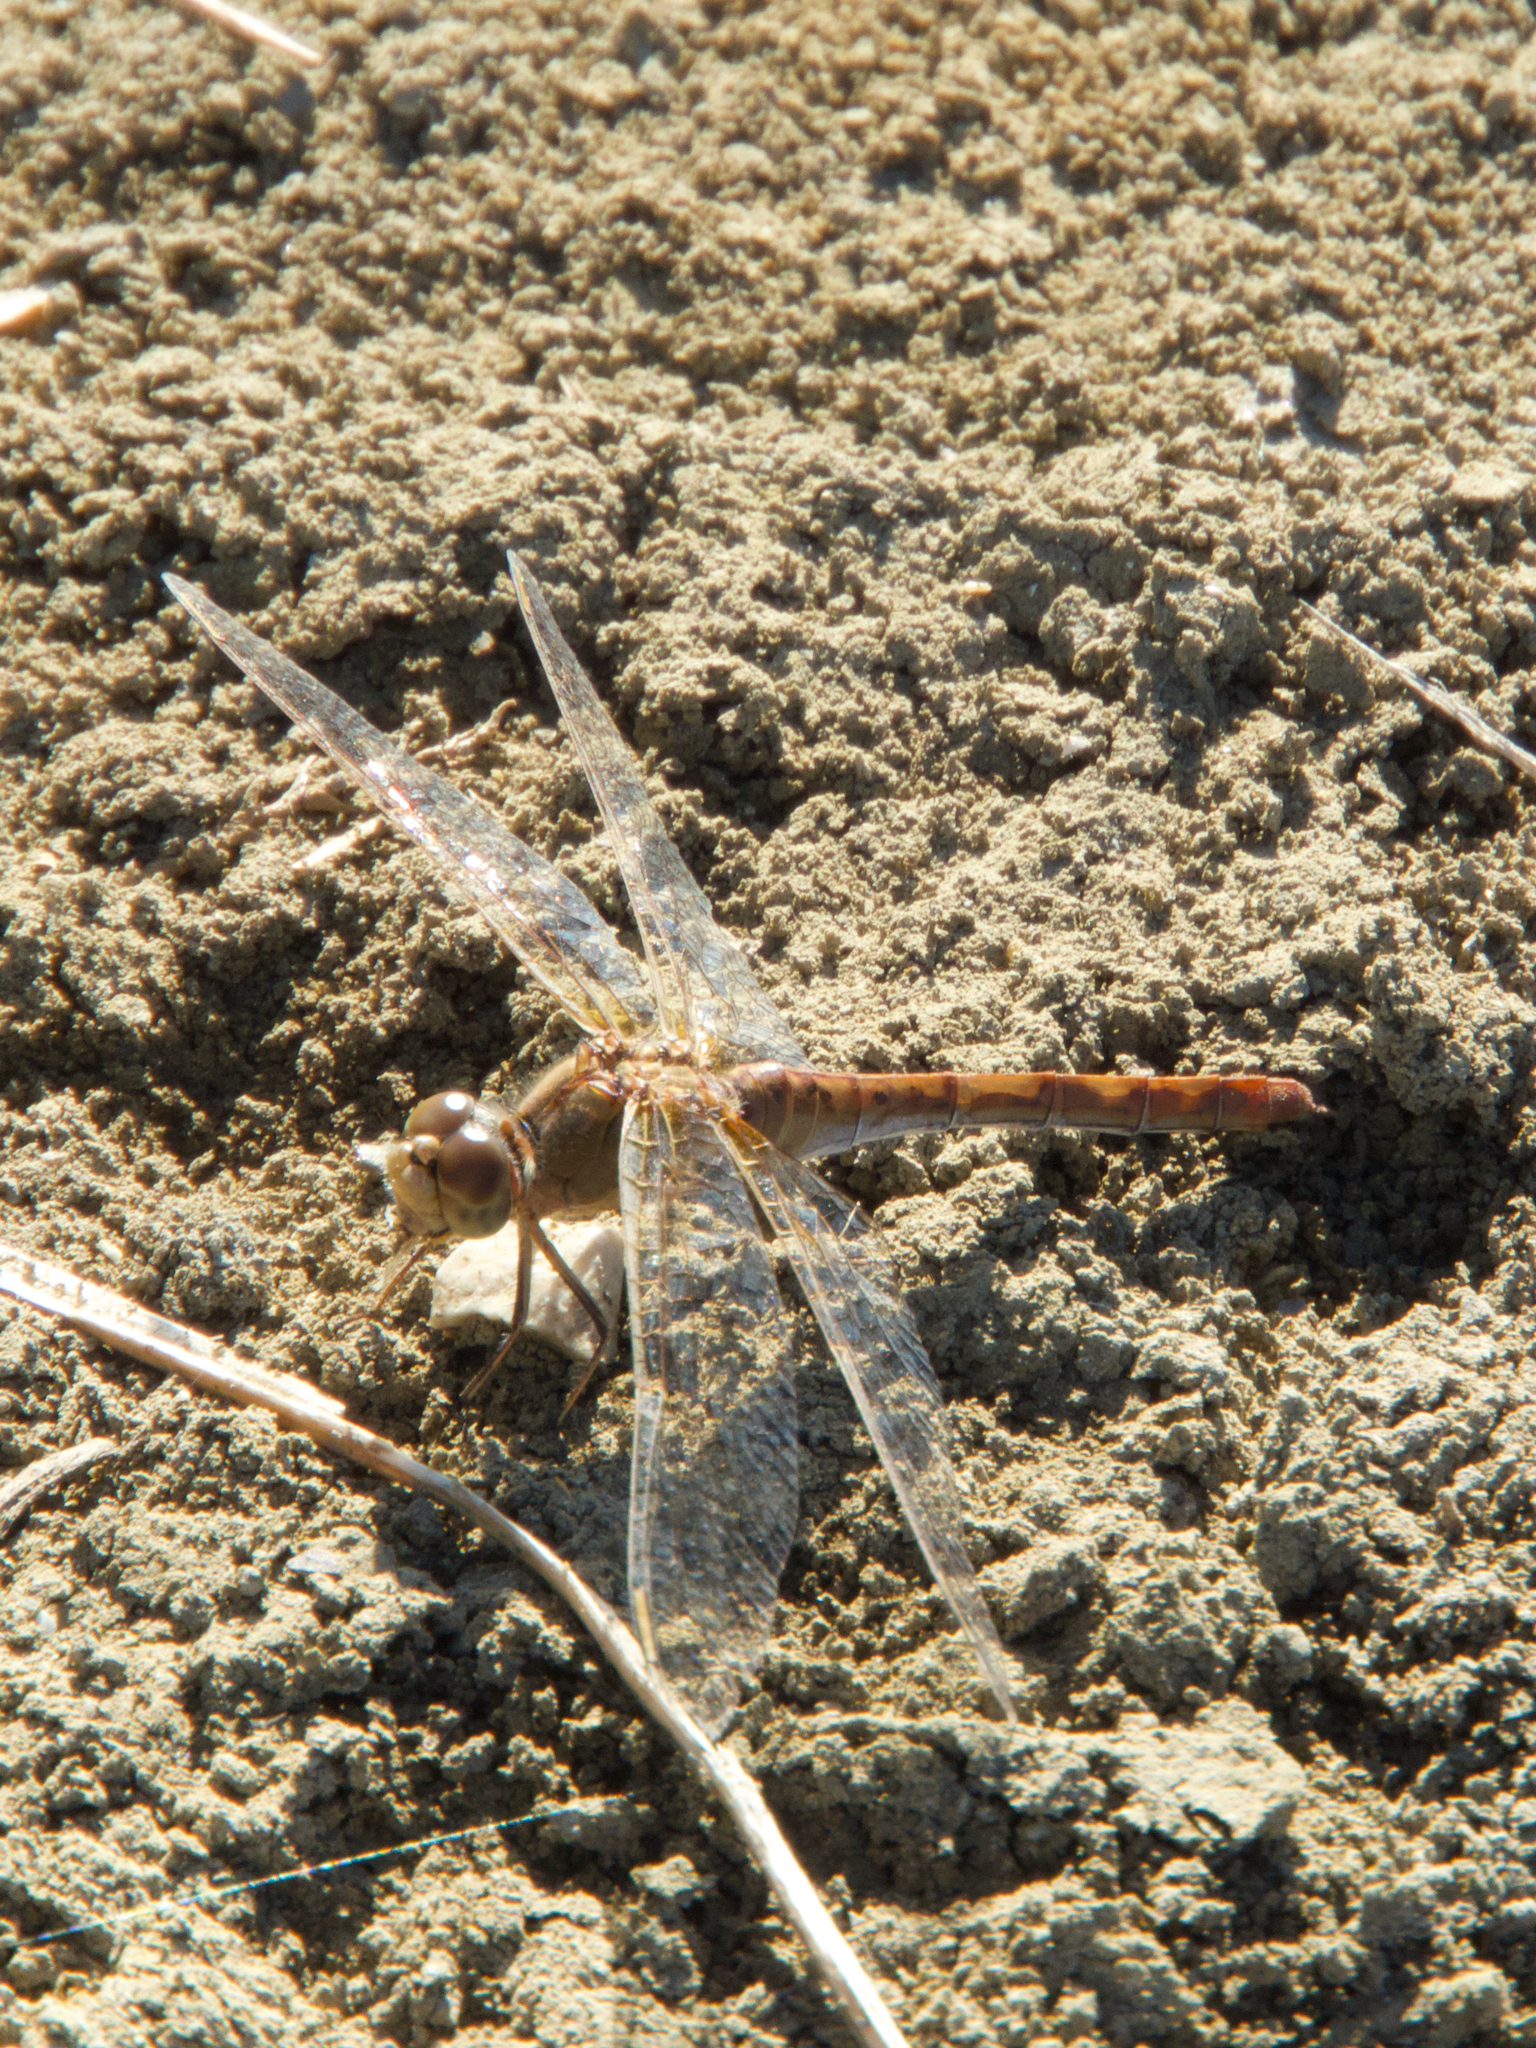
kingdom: Animalia
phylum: Arthropoda
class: Insecta
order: Odonata
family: Libellulidae
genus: Sympetrum
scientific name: Sympetrum meridionale
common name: Southern darter
